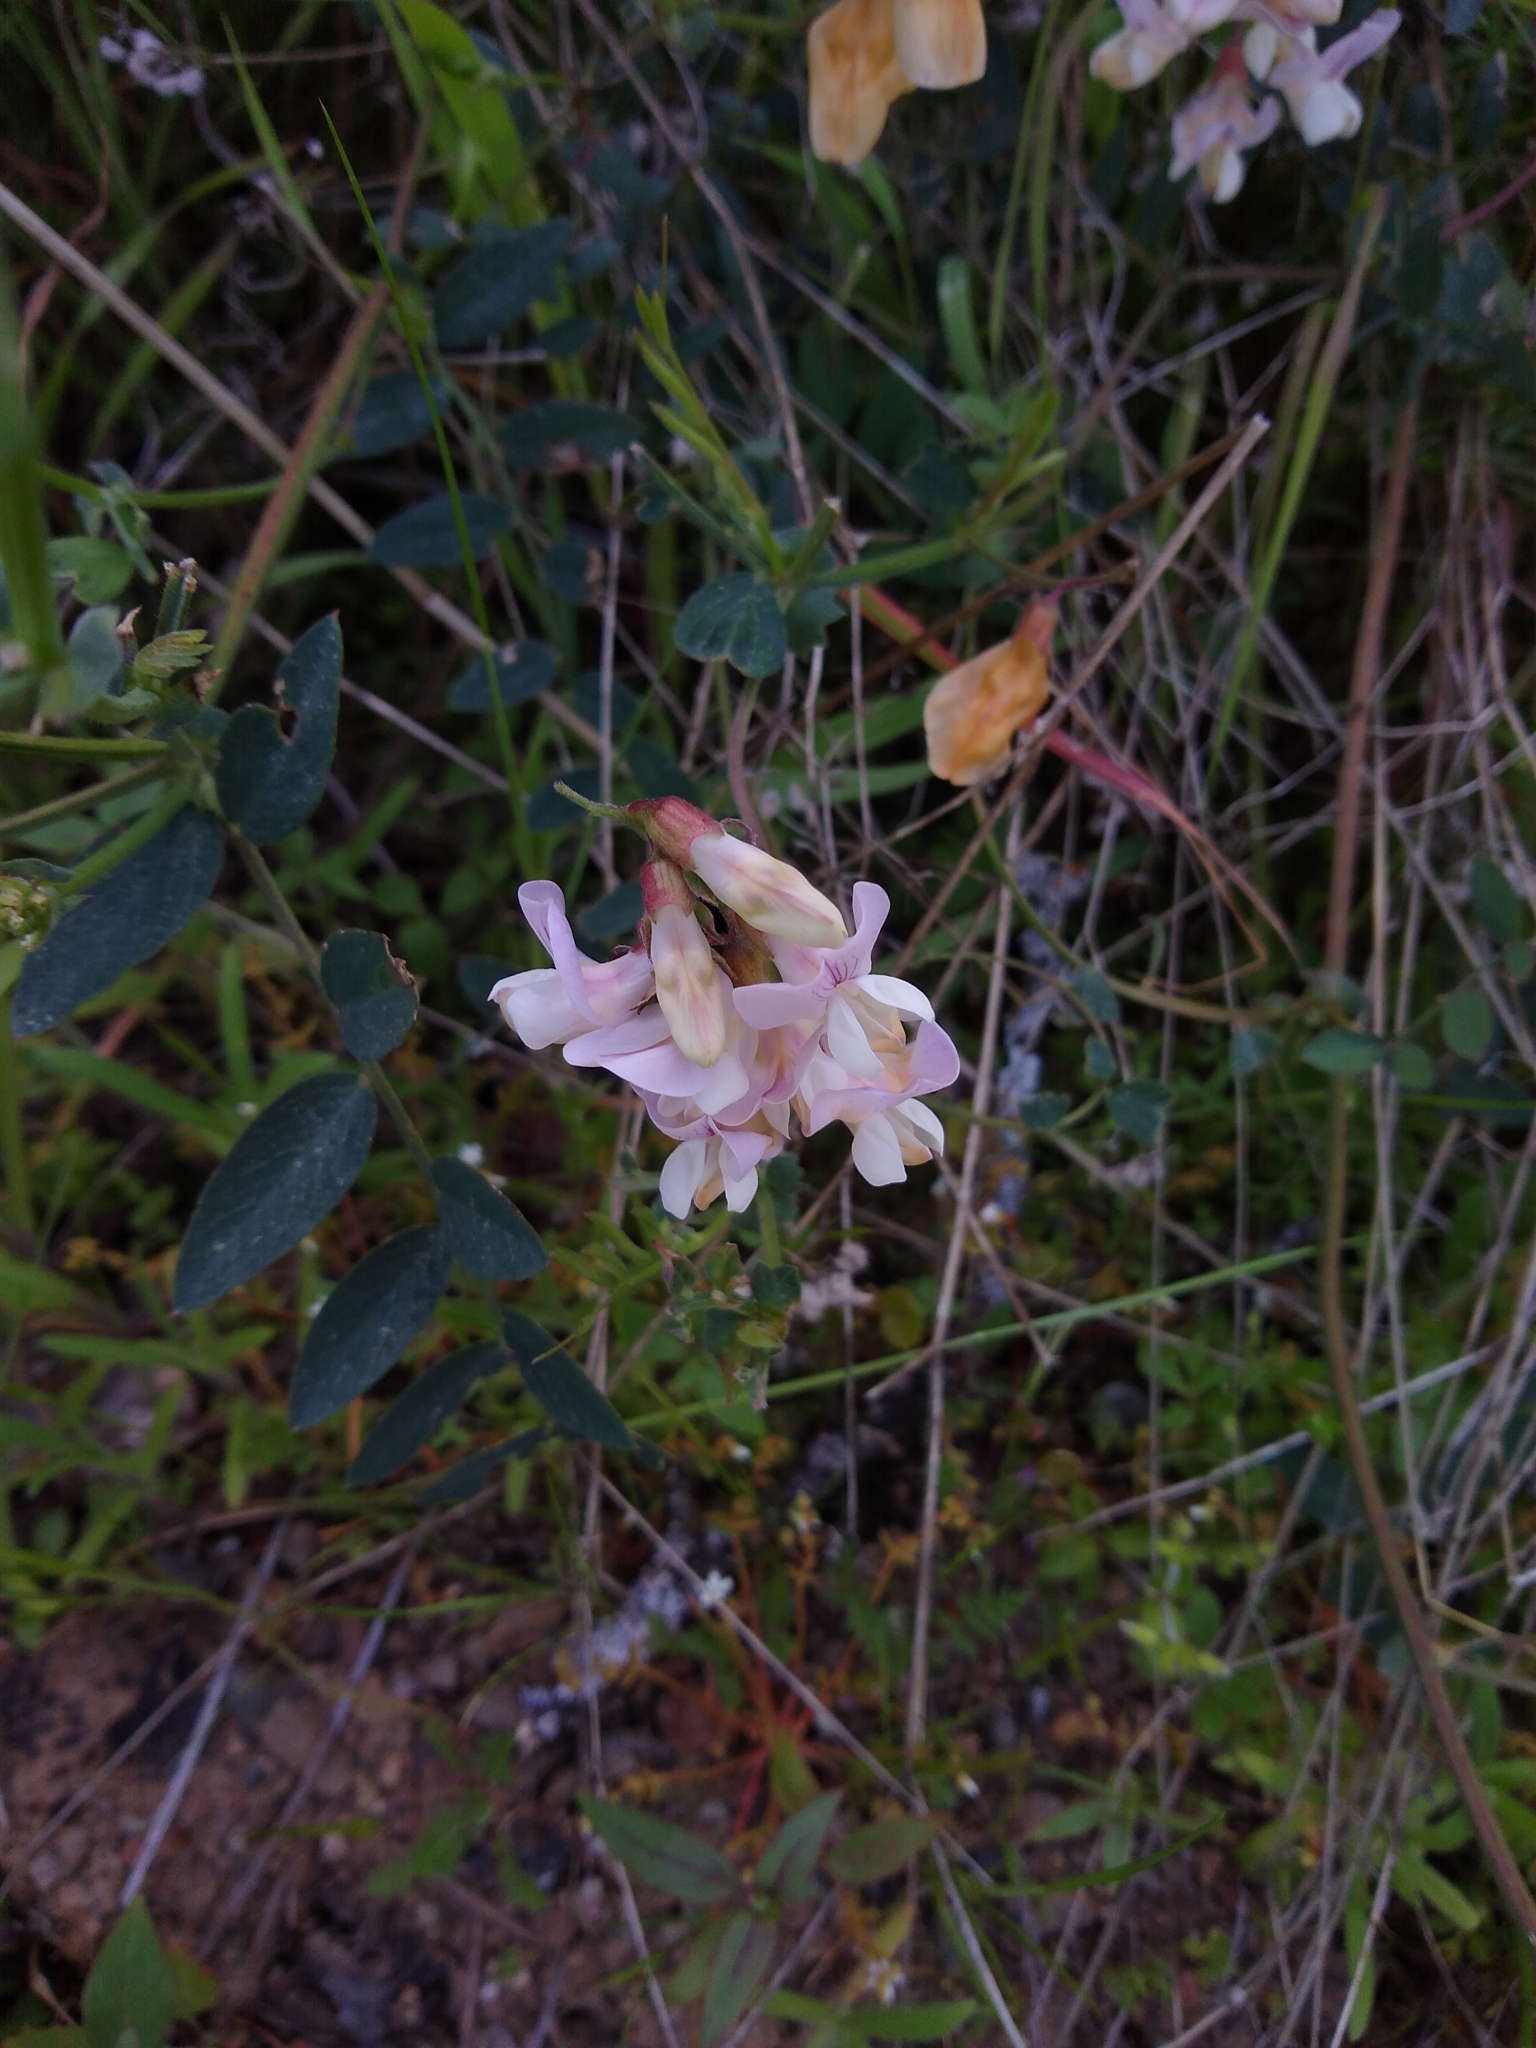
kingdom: Plantae
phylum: Tracheophyta
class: Magnoliopsida
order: Fabales
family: Fabaceae
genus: Lathyrus
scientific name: Lathyrus vestitus
